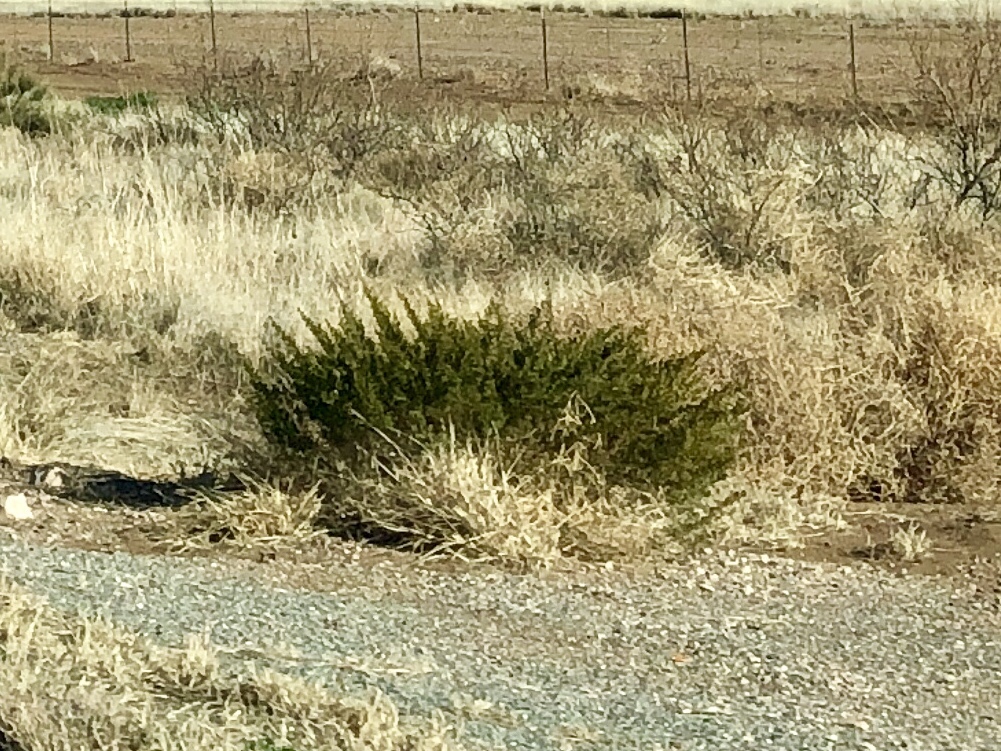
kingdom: Plantae
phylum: Tracheophyta
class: Magnoliopsida
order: Zygophyllales
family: Zygophyllaceae
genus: Larrea
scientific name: Larrea tridentata
